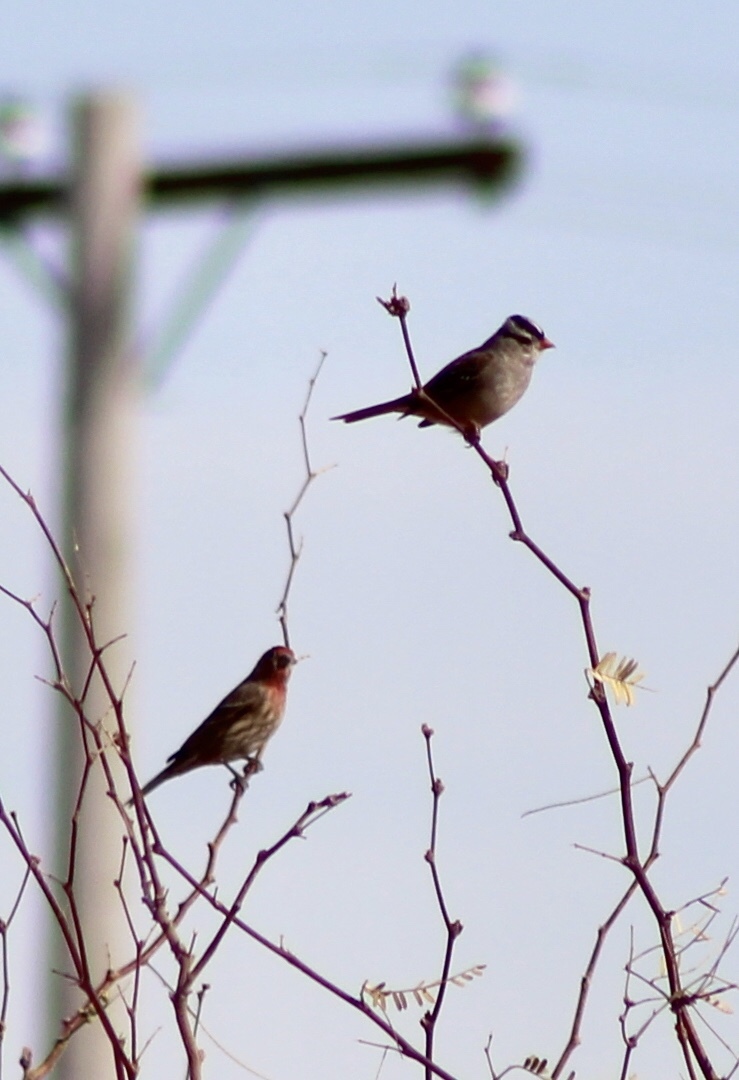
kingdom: Animalia
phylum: Chordata
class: Aves
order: Passeriformes
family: Passerellidae
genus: Zonotrichia
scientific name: Zonotrichia leucophrys
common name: White-crowned sparrow
